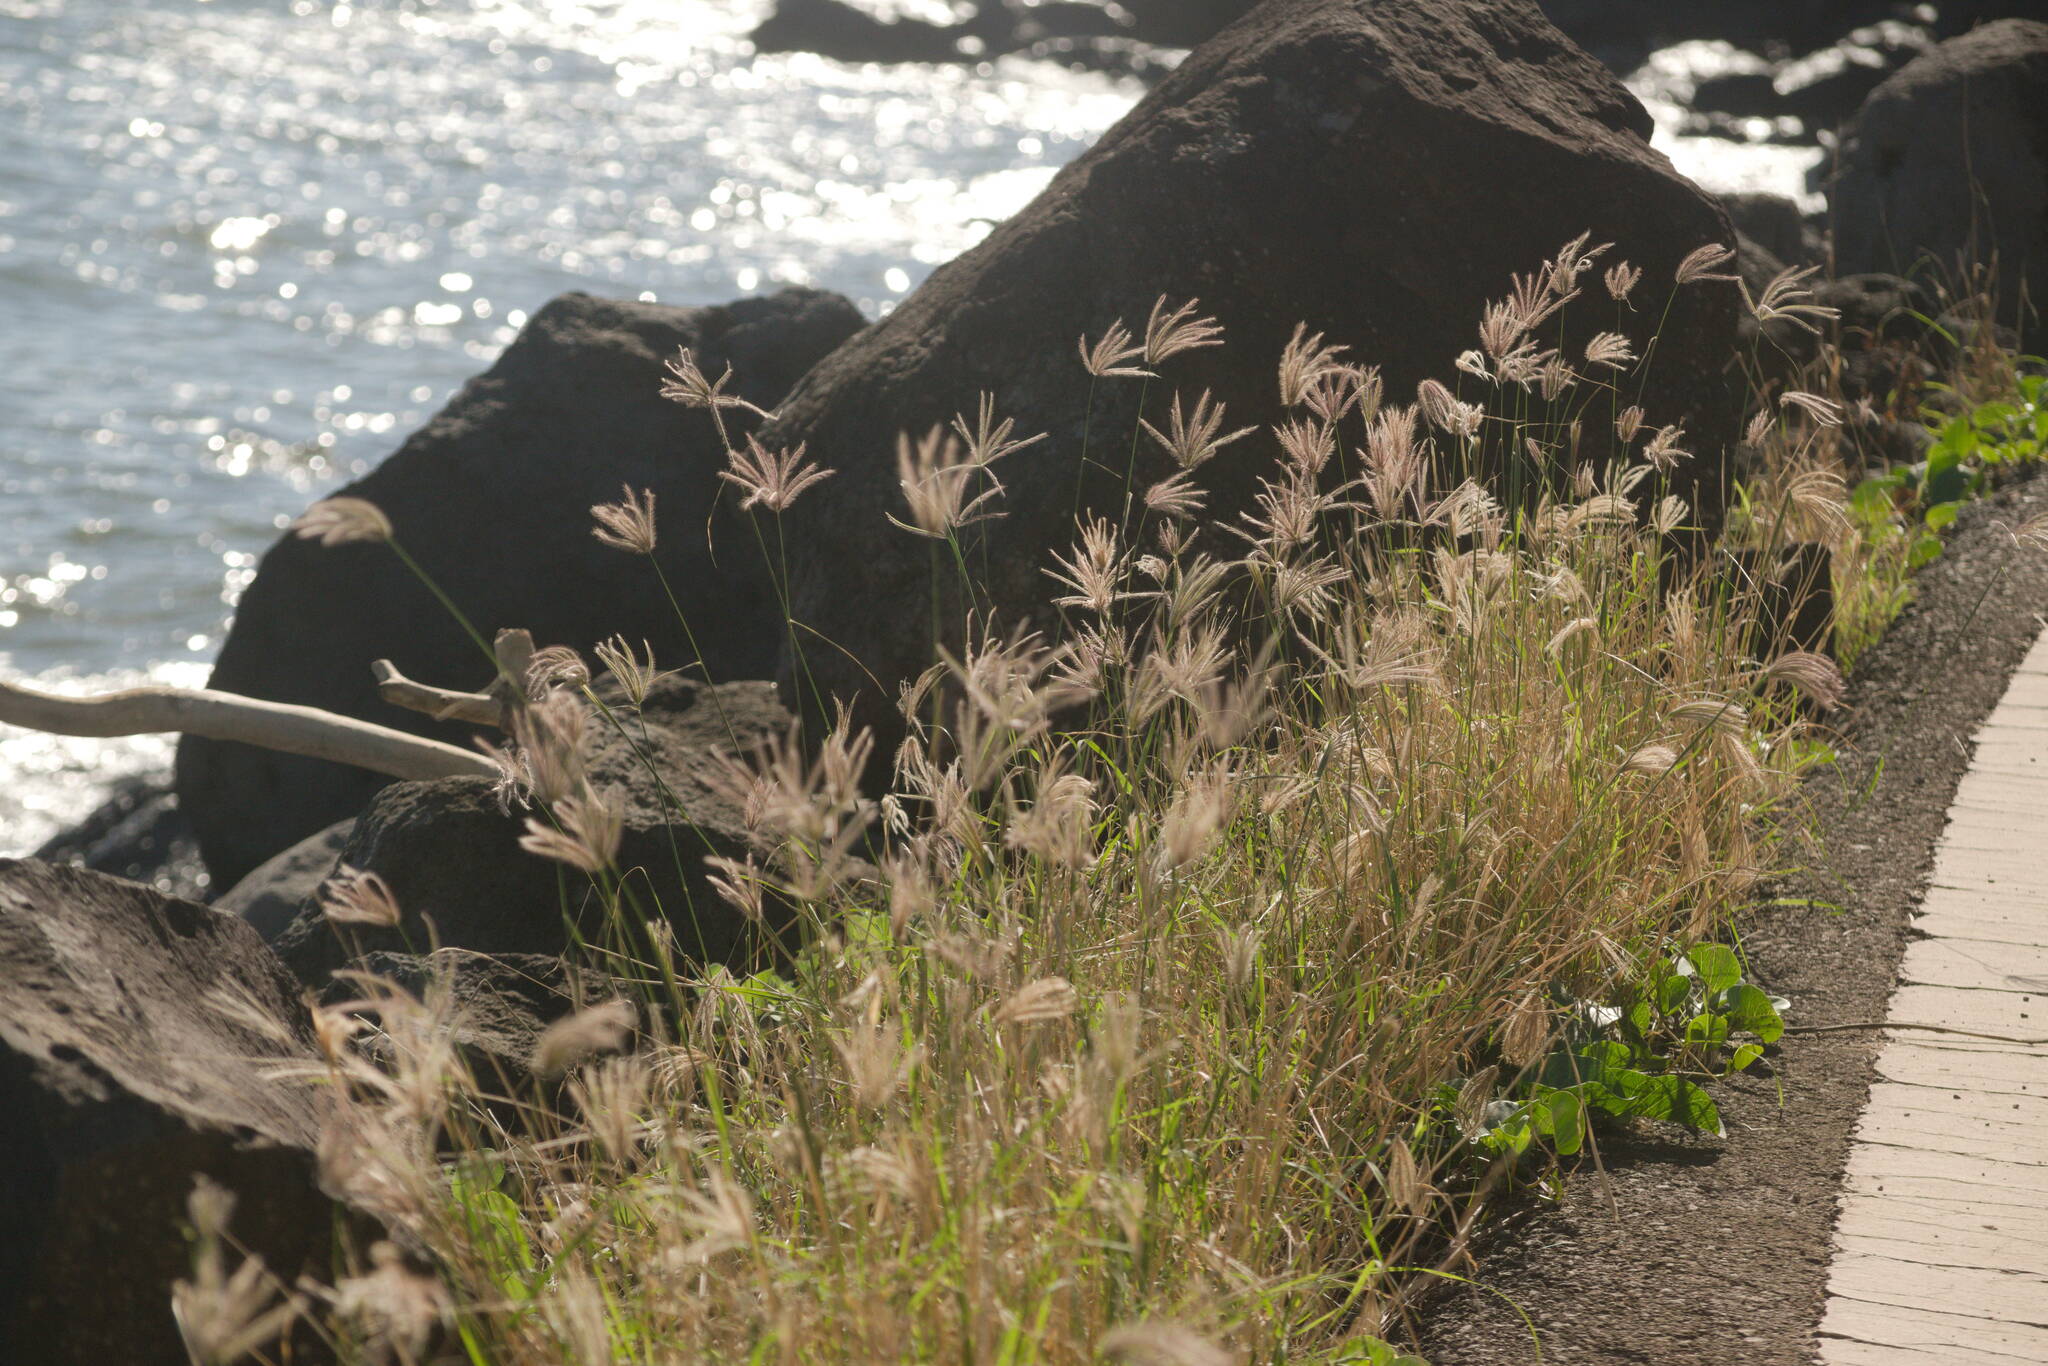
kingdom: Plantae
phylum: Tracheophyta
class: Liliopsida
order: Poales
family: Poaceae
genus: Chloris
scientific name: Chloris barbata
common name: Swollen fingergrass
